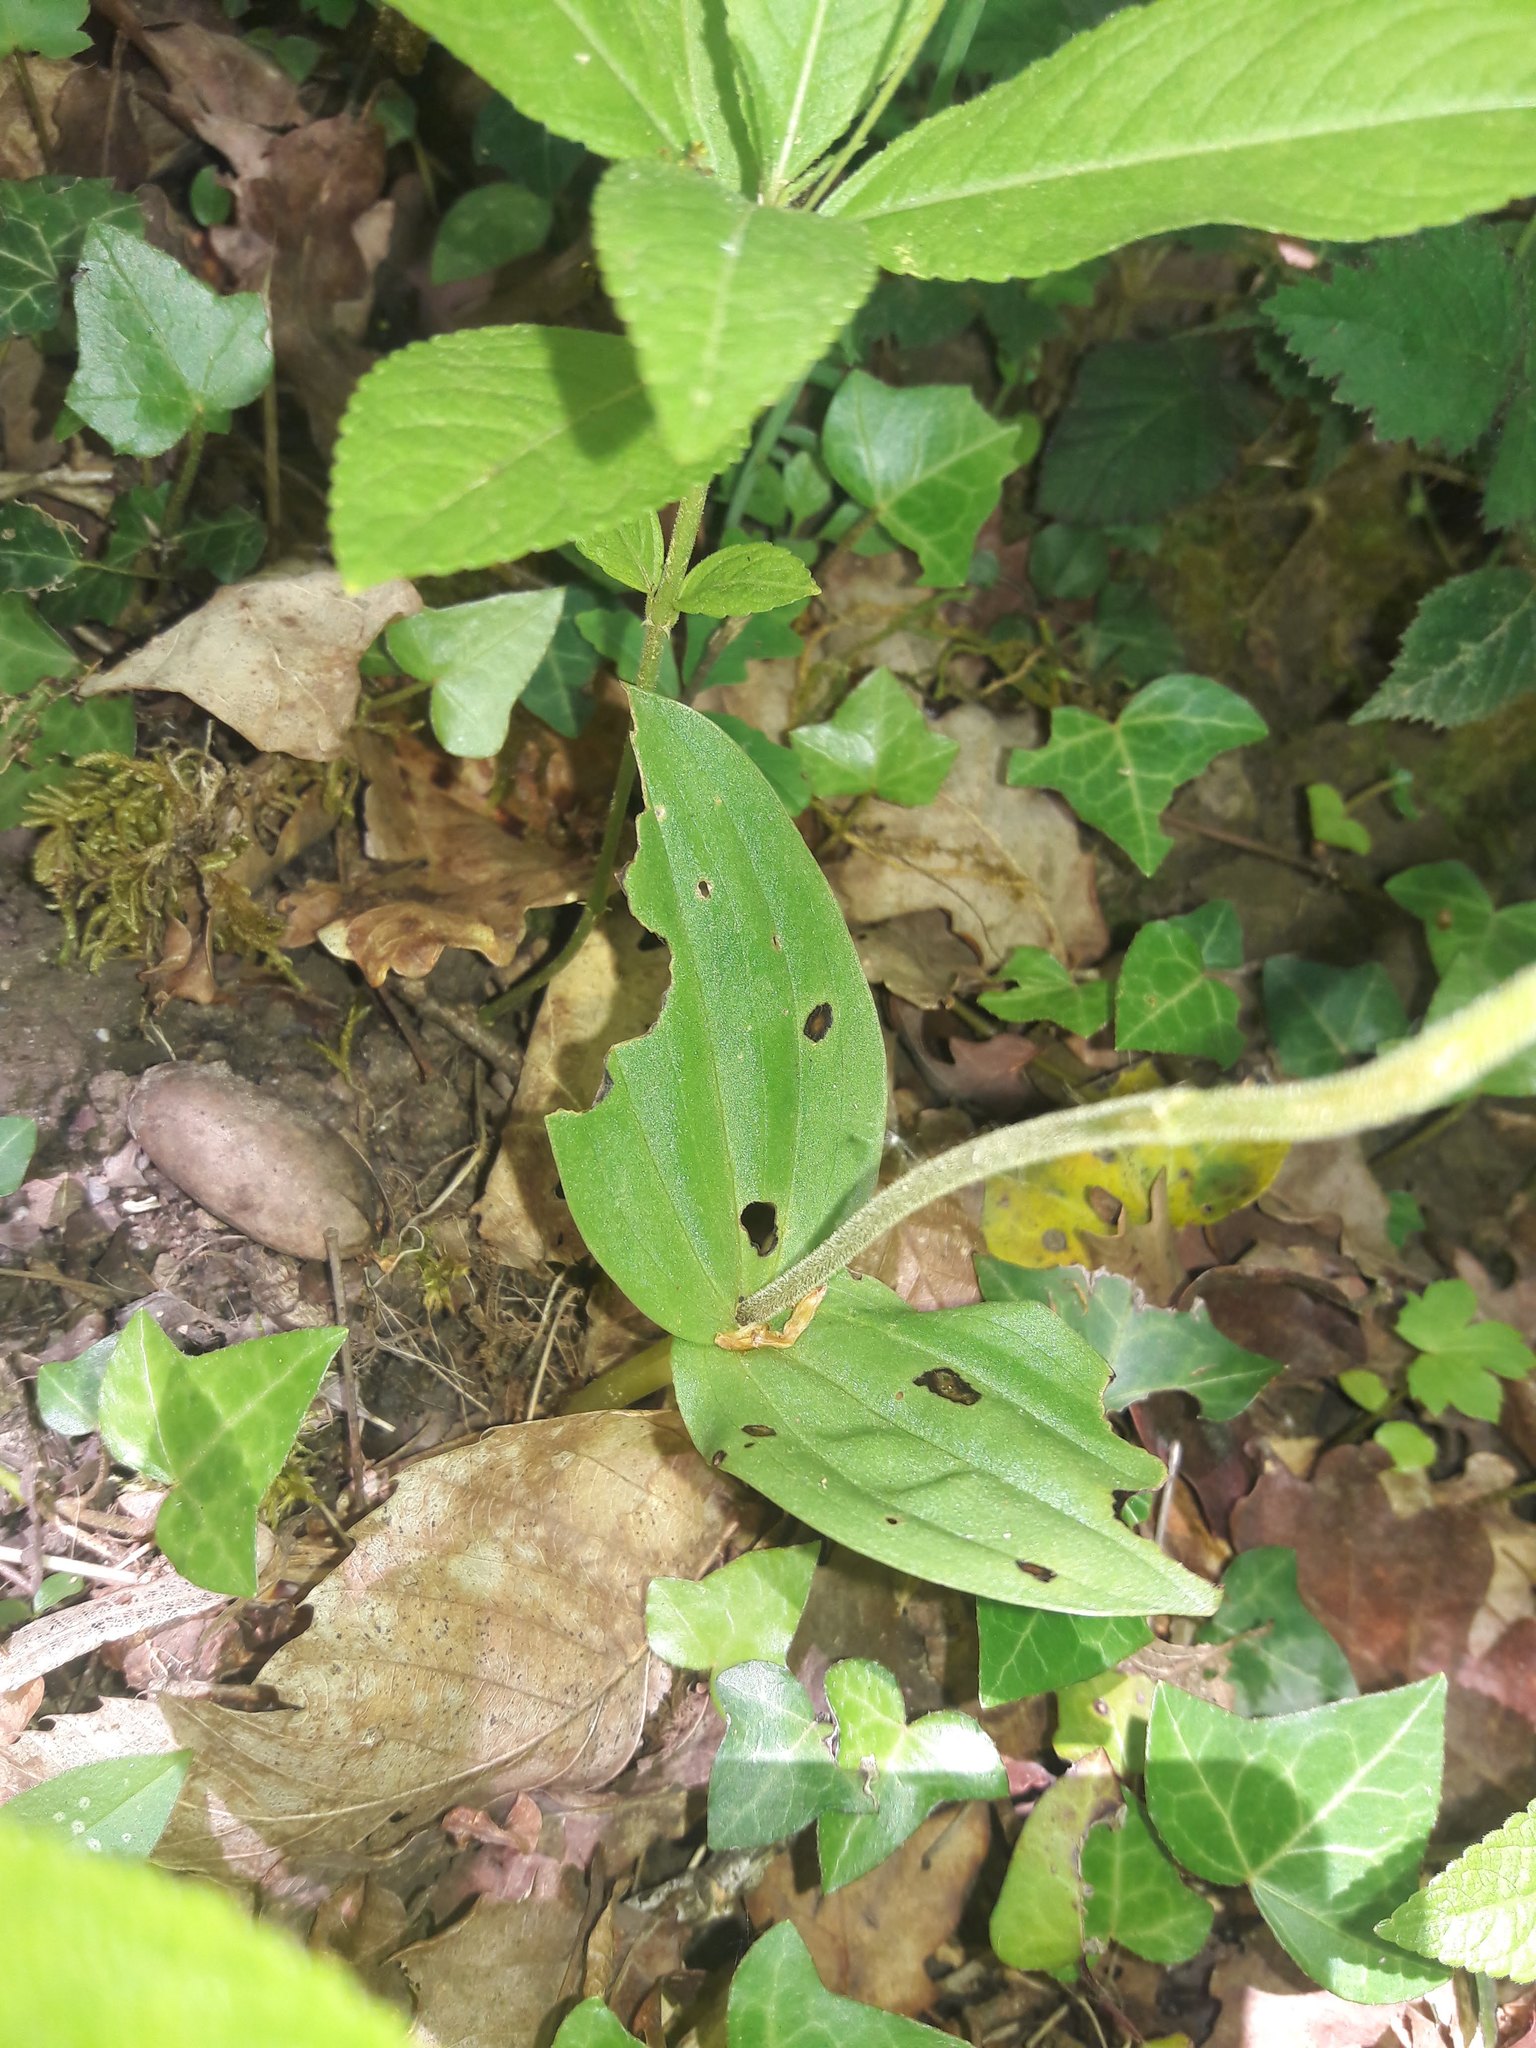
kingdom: Plantae
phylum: Tracheophyta
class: Liliopsida
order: Asparagales
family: Orchidaceae
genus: Neottia
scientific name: Neottia ovata
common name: Common twayblade
